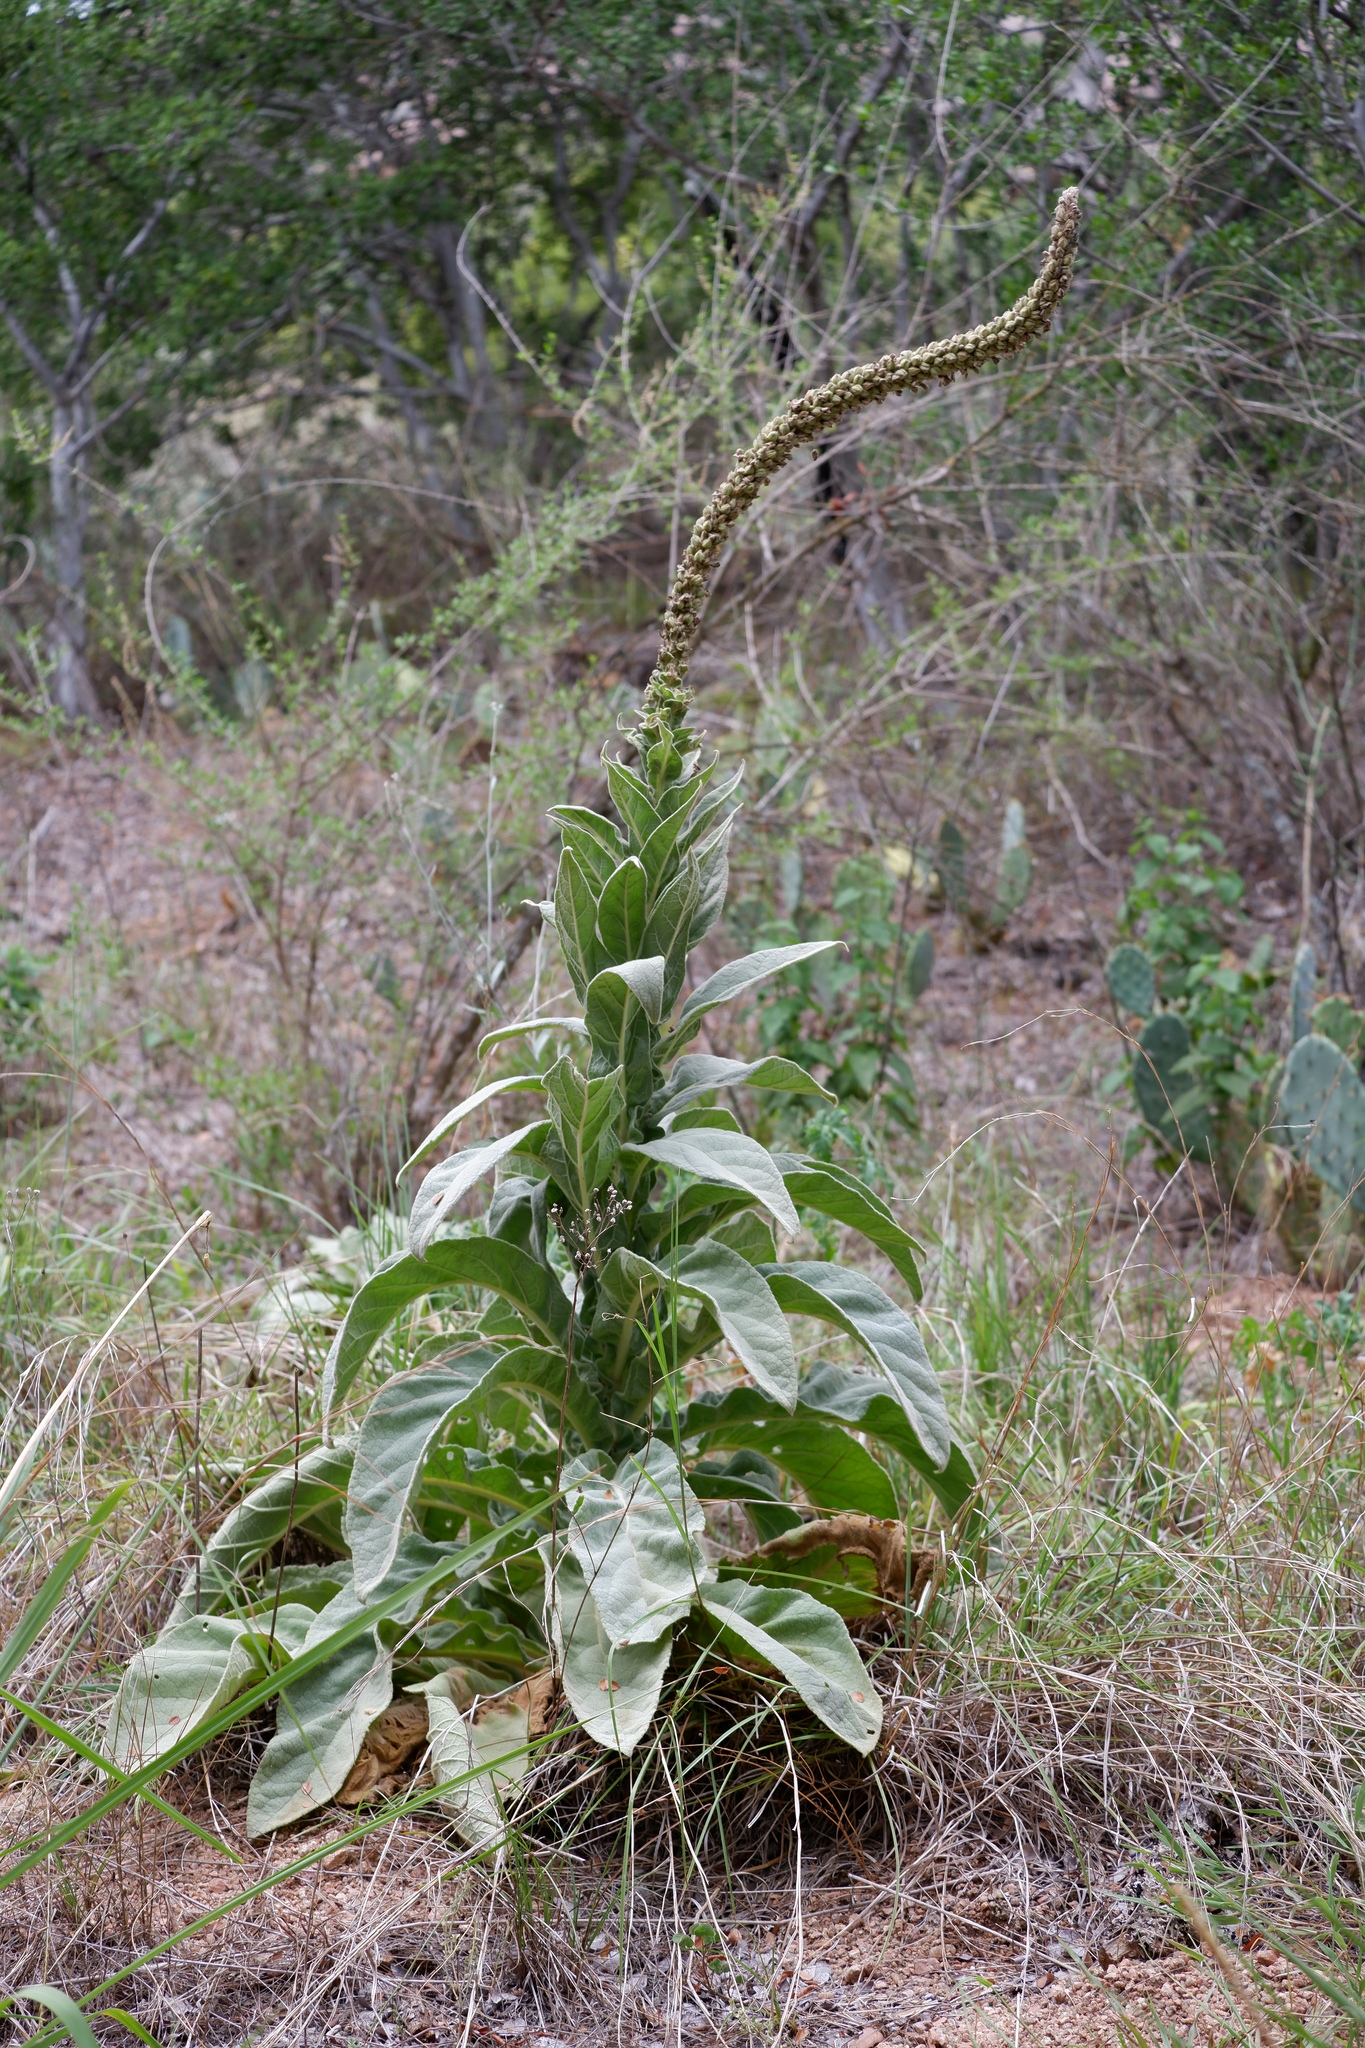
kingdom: Plantae
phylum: Tracheophyta
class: Magnoliopsida
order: Lamiales
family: Scrophulariaceae
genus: Verbascum
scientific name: Verbascum thapsus
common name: Common mullein
